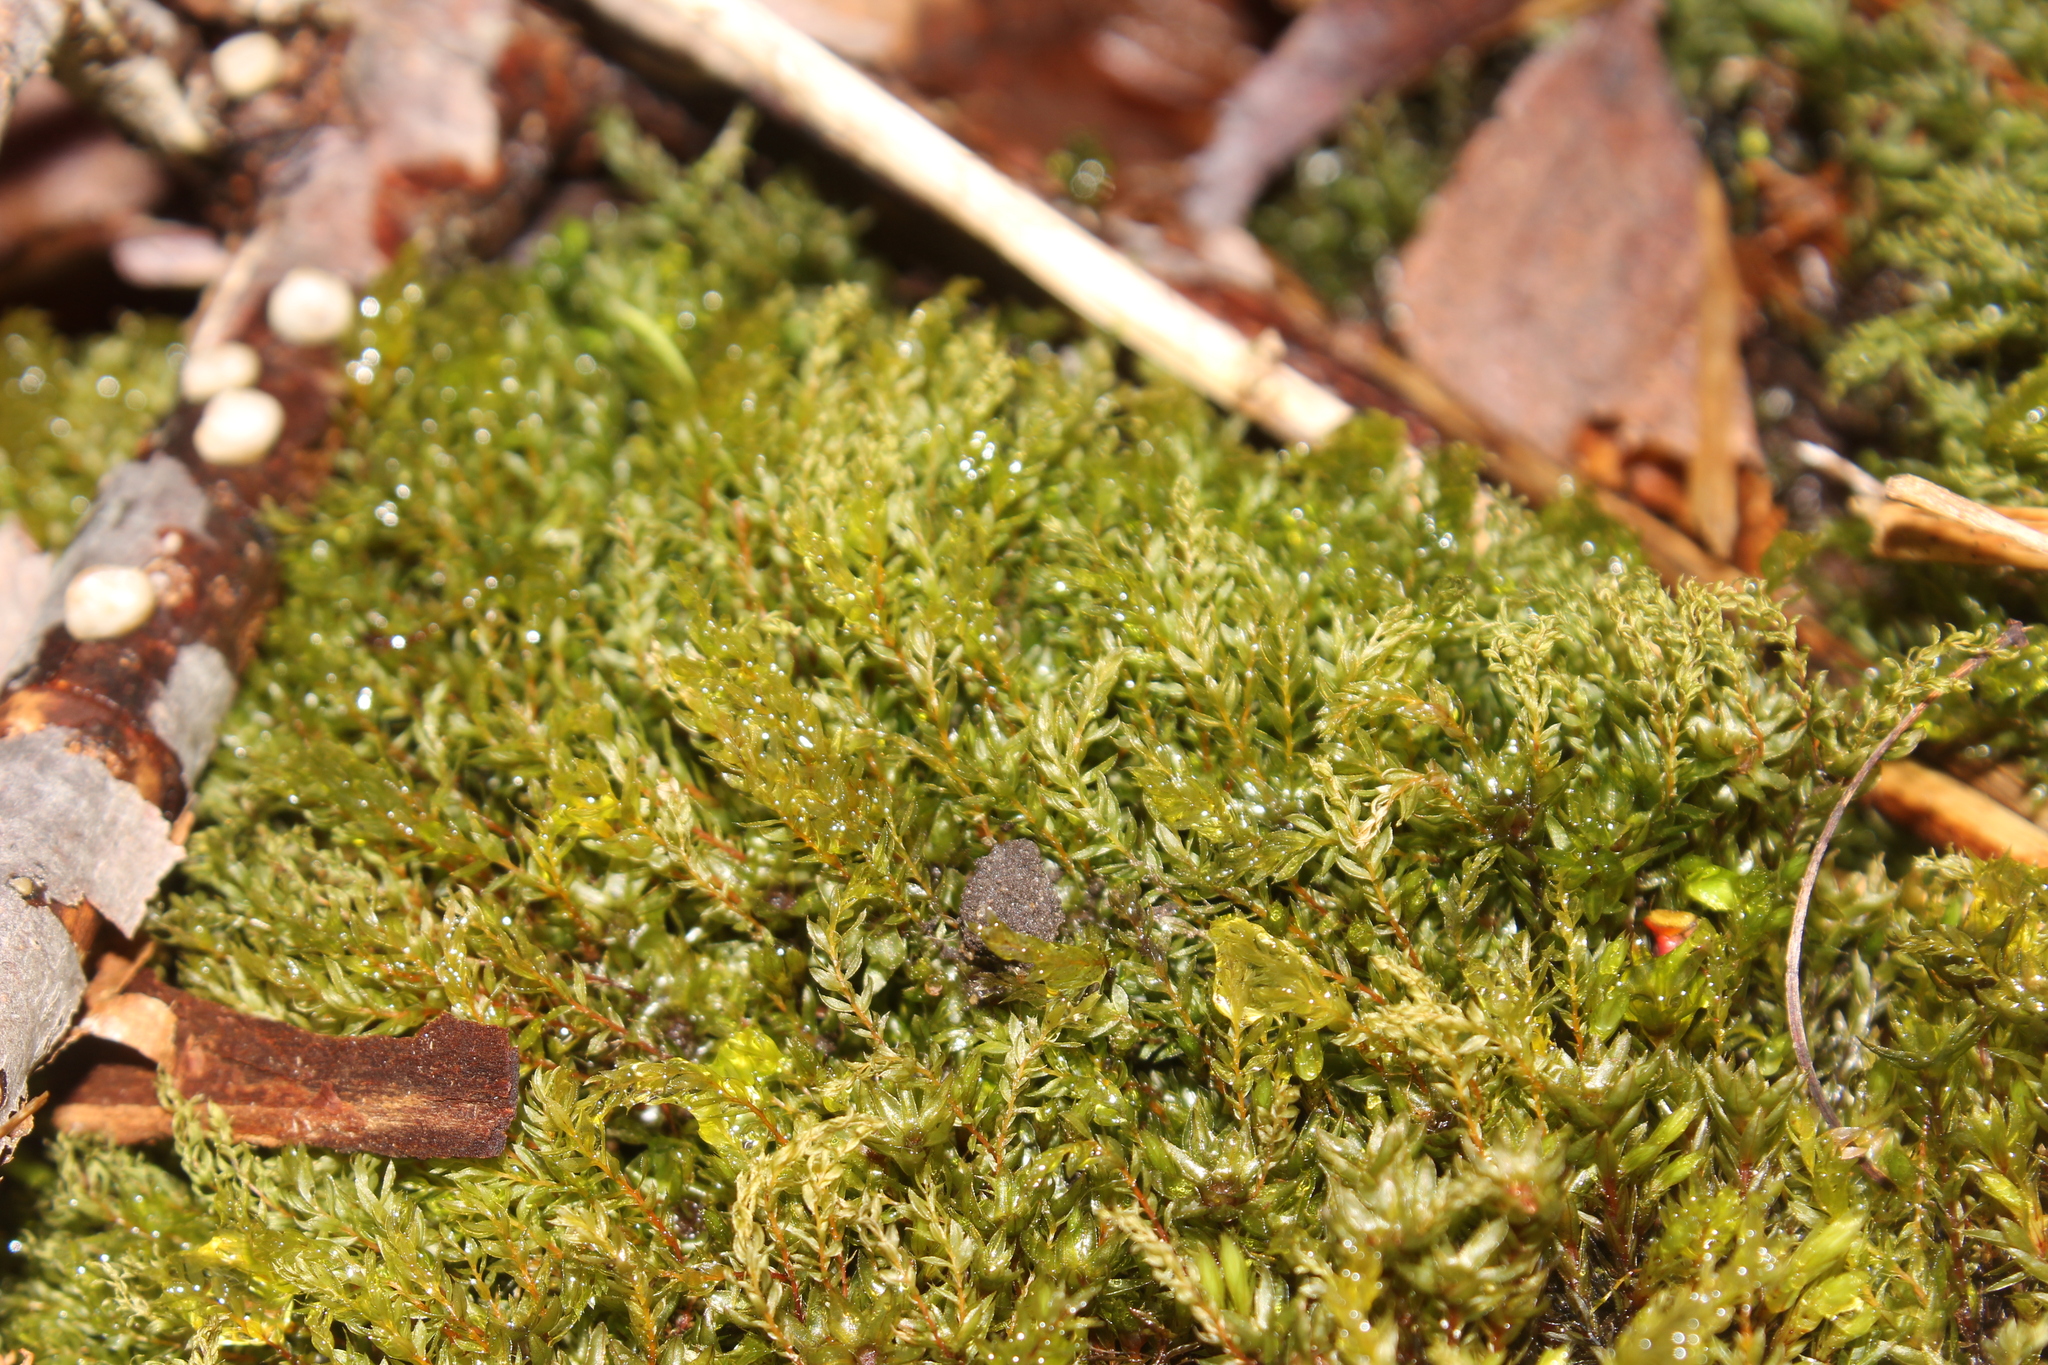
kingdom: Plantae
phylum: Bryophyta
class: Bryopsida
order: Bryales
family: Mniaceae
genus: Mnium
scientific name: Mnium hornum
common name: Swan's-neck leafy moss
